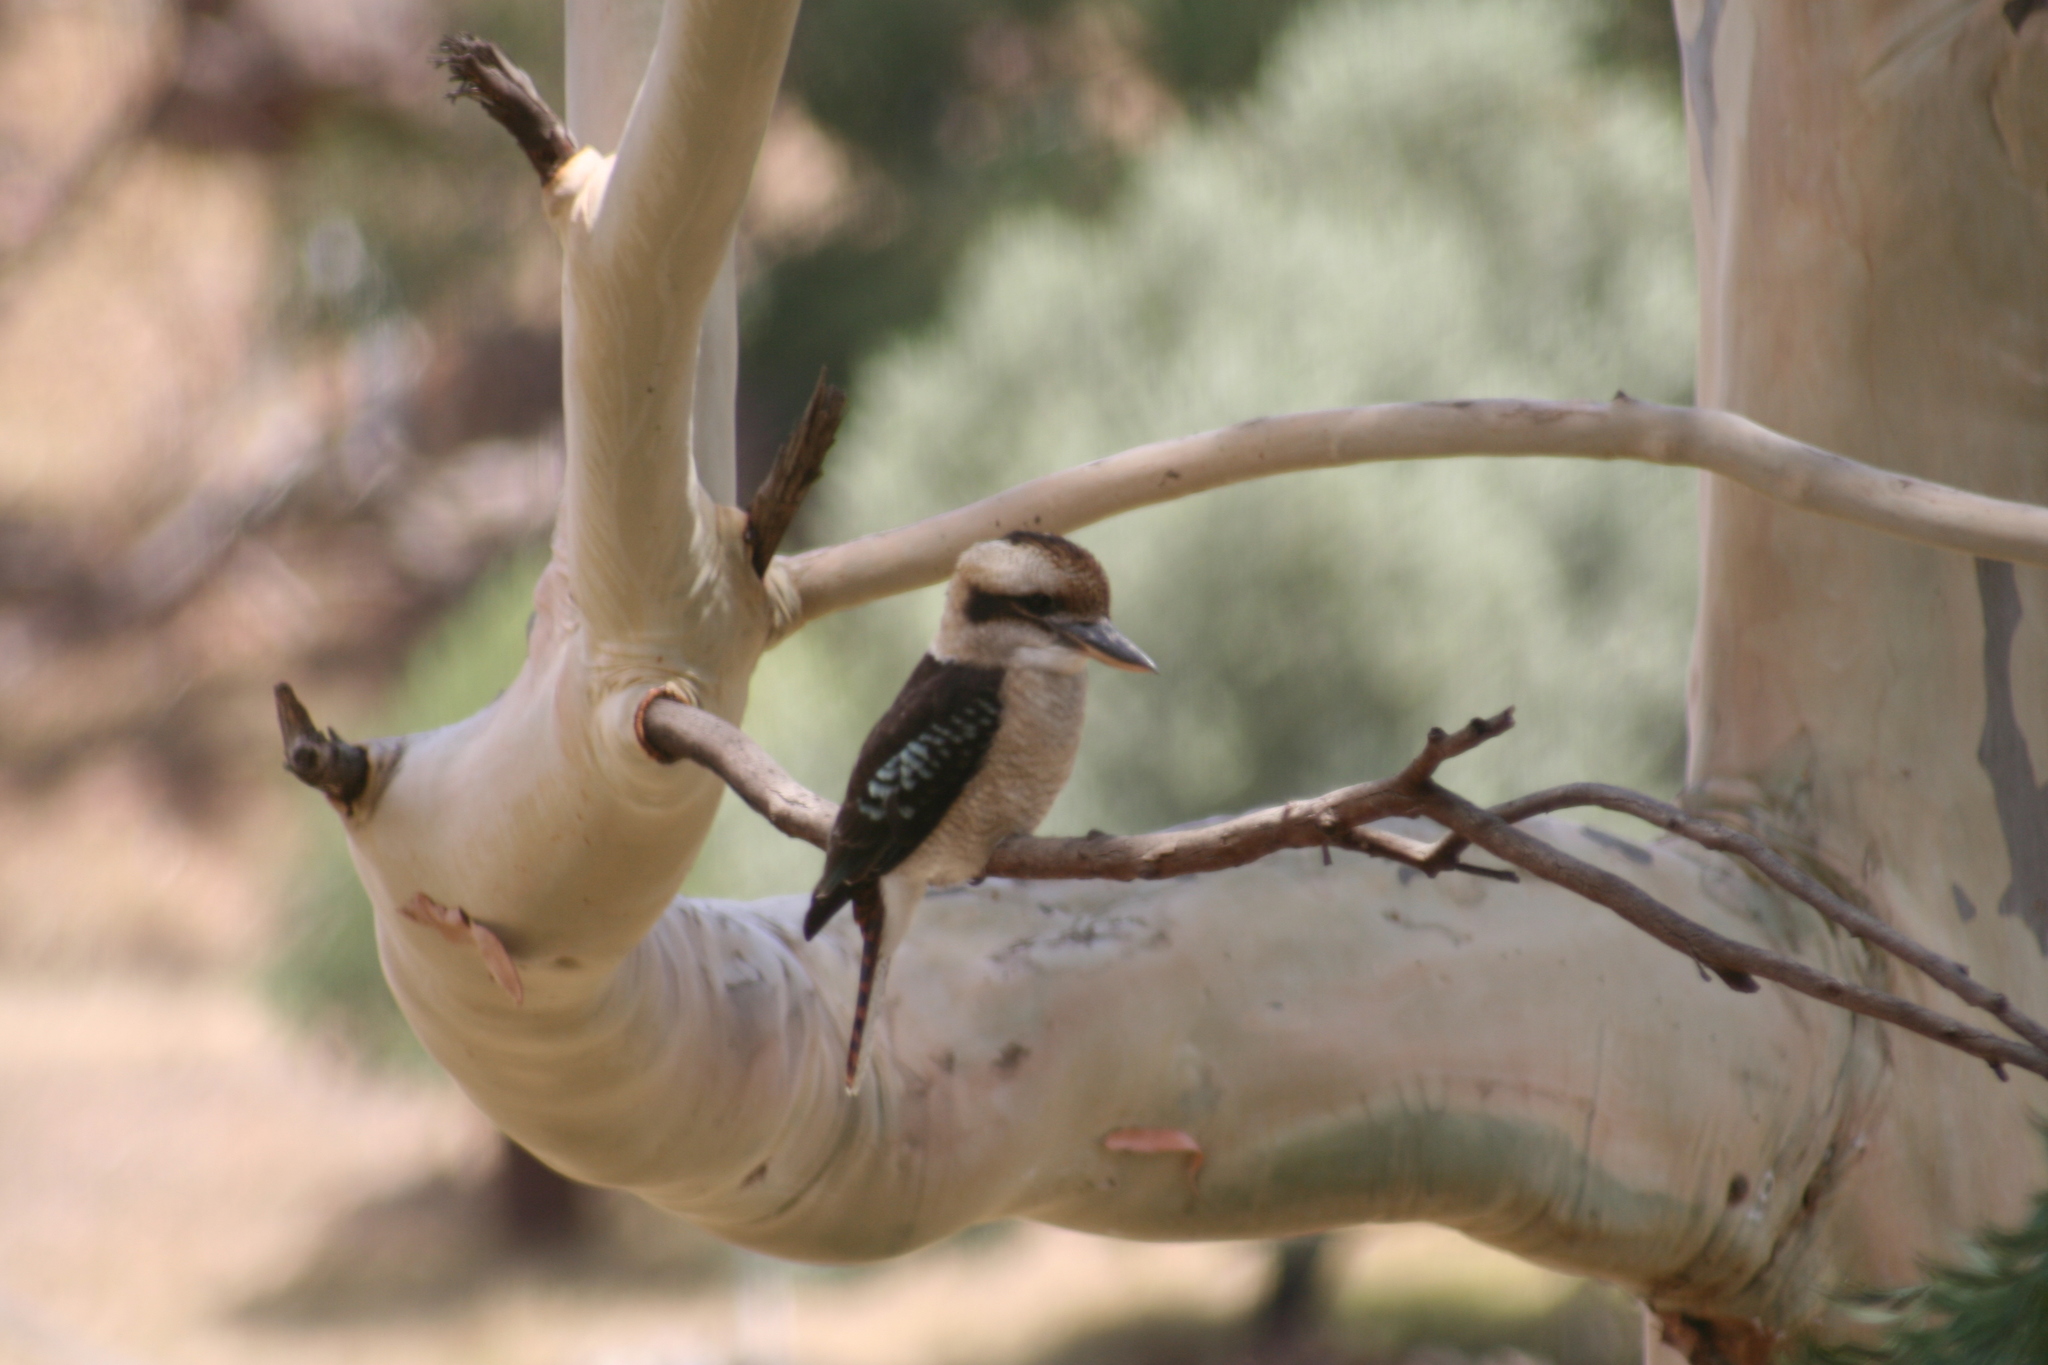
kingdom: Animalia
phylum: Chordata
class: Aves
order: Coraciiformes
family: Alcedinidae
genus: Dacelo
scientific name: Dacelo novaeguineae
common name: Laughing kookaburra
